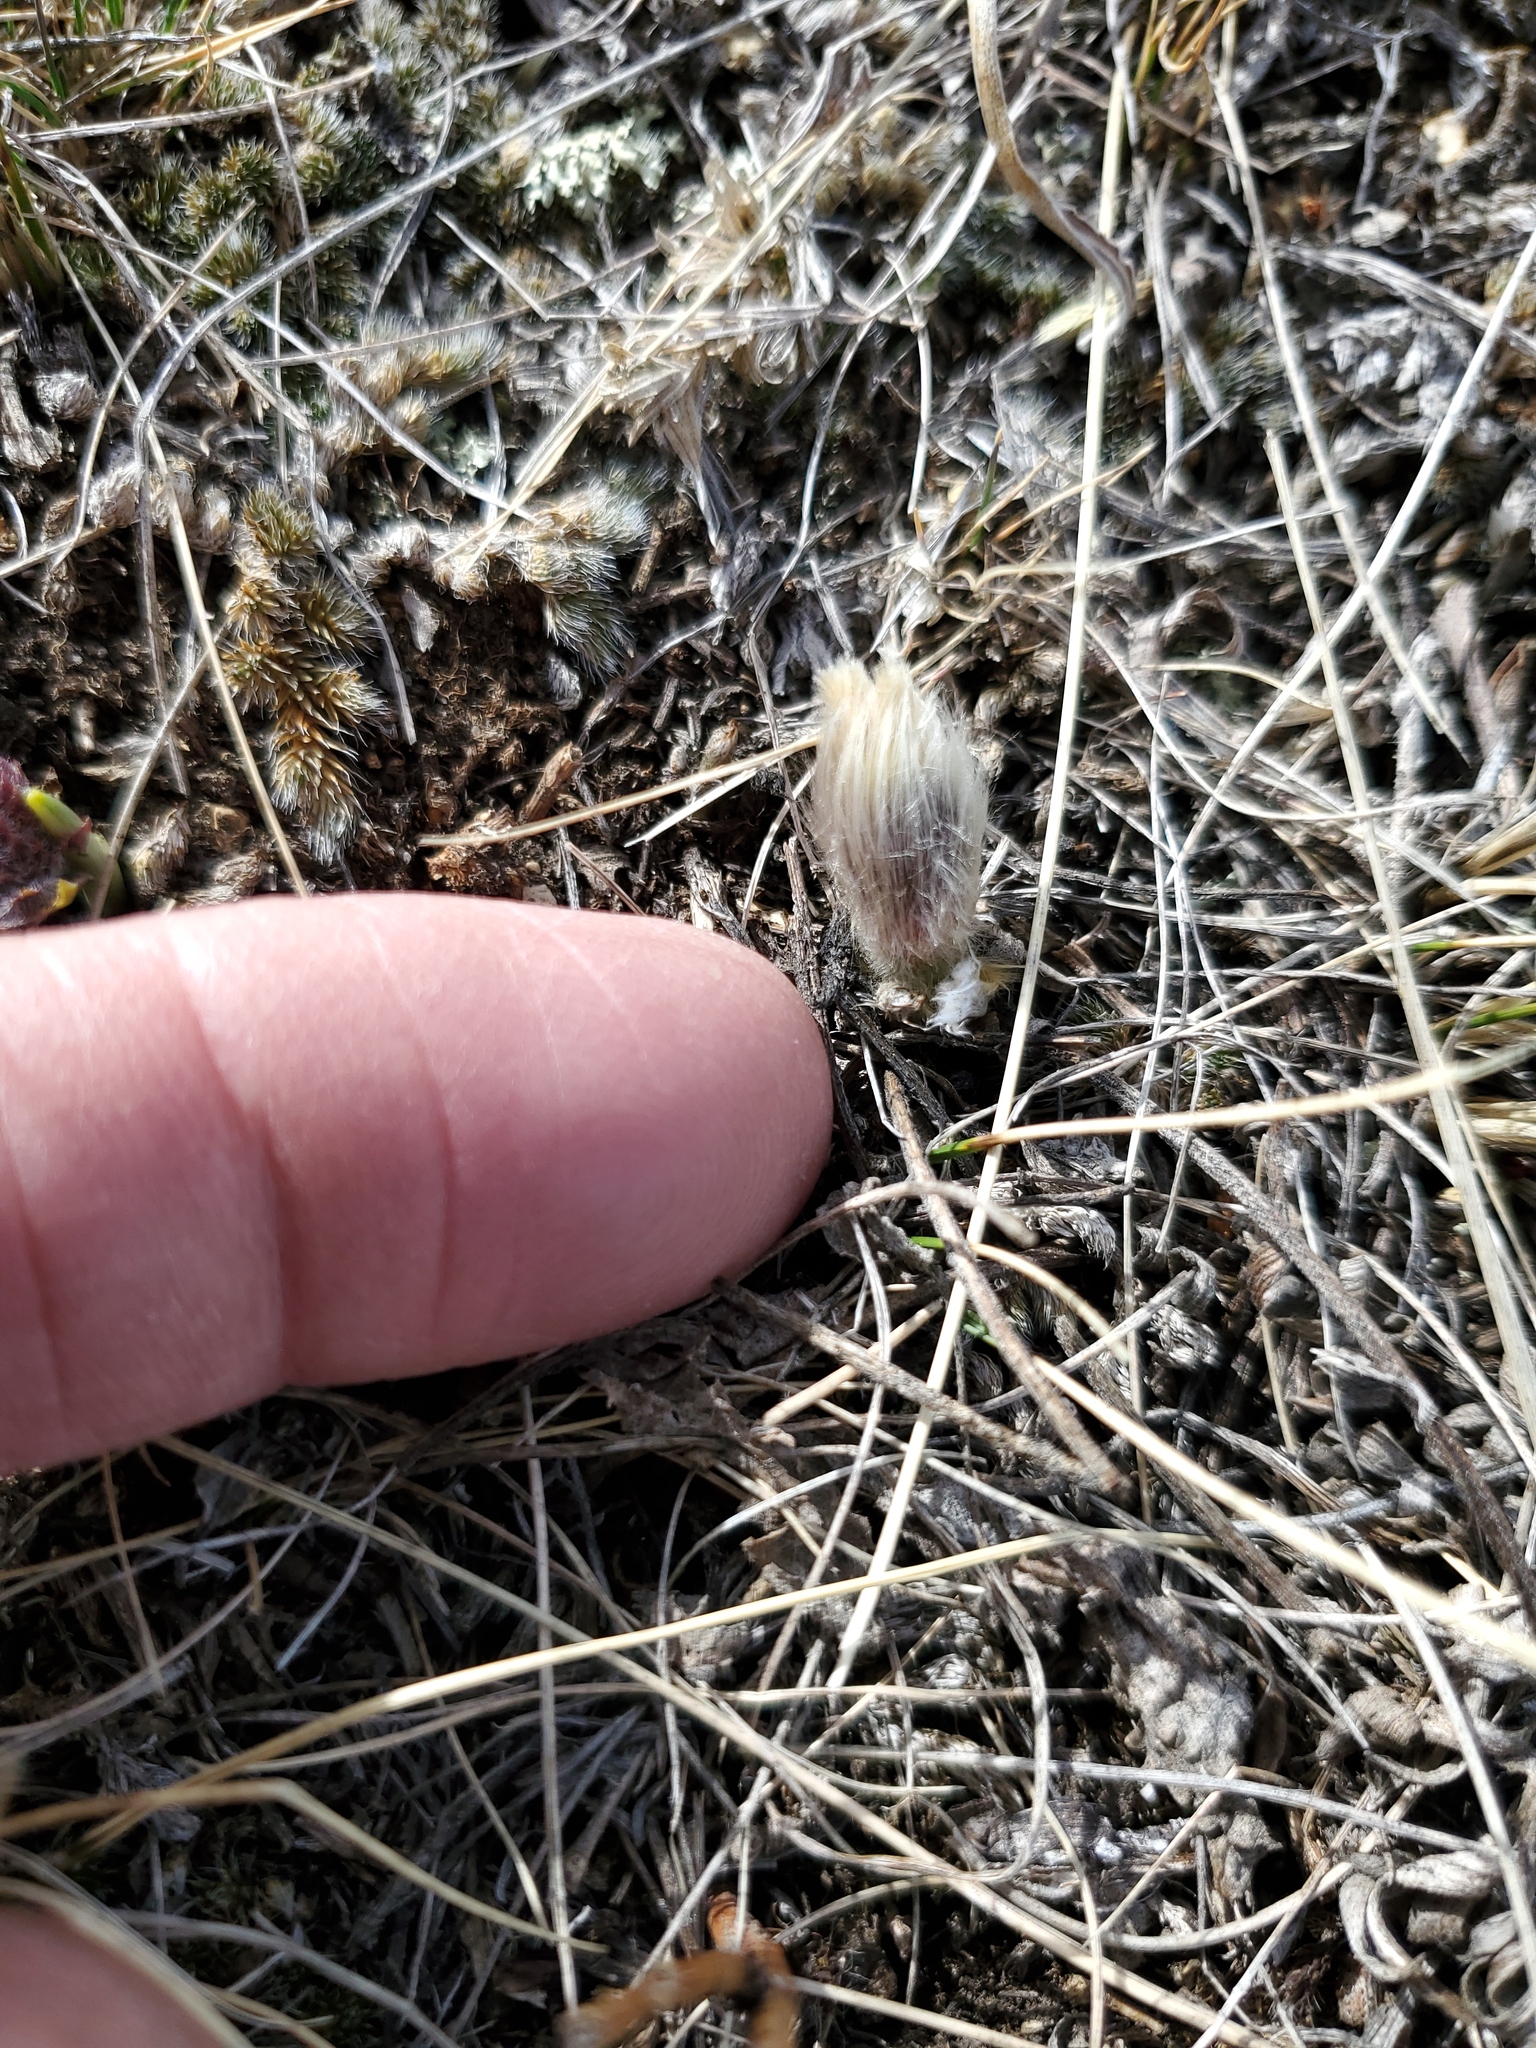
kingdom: Plantae
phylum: Tracheophyta
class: Magnoliopsida
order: Ranunculales
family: Ranunculaceae
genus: Pulsatilla
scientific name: Pulsatilla nuttalliana
